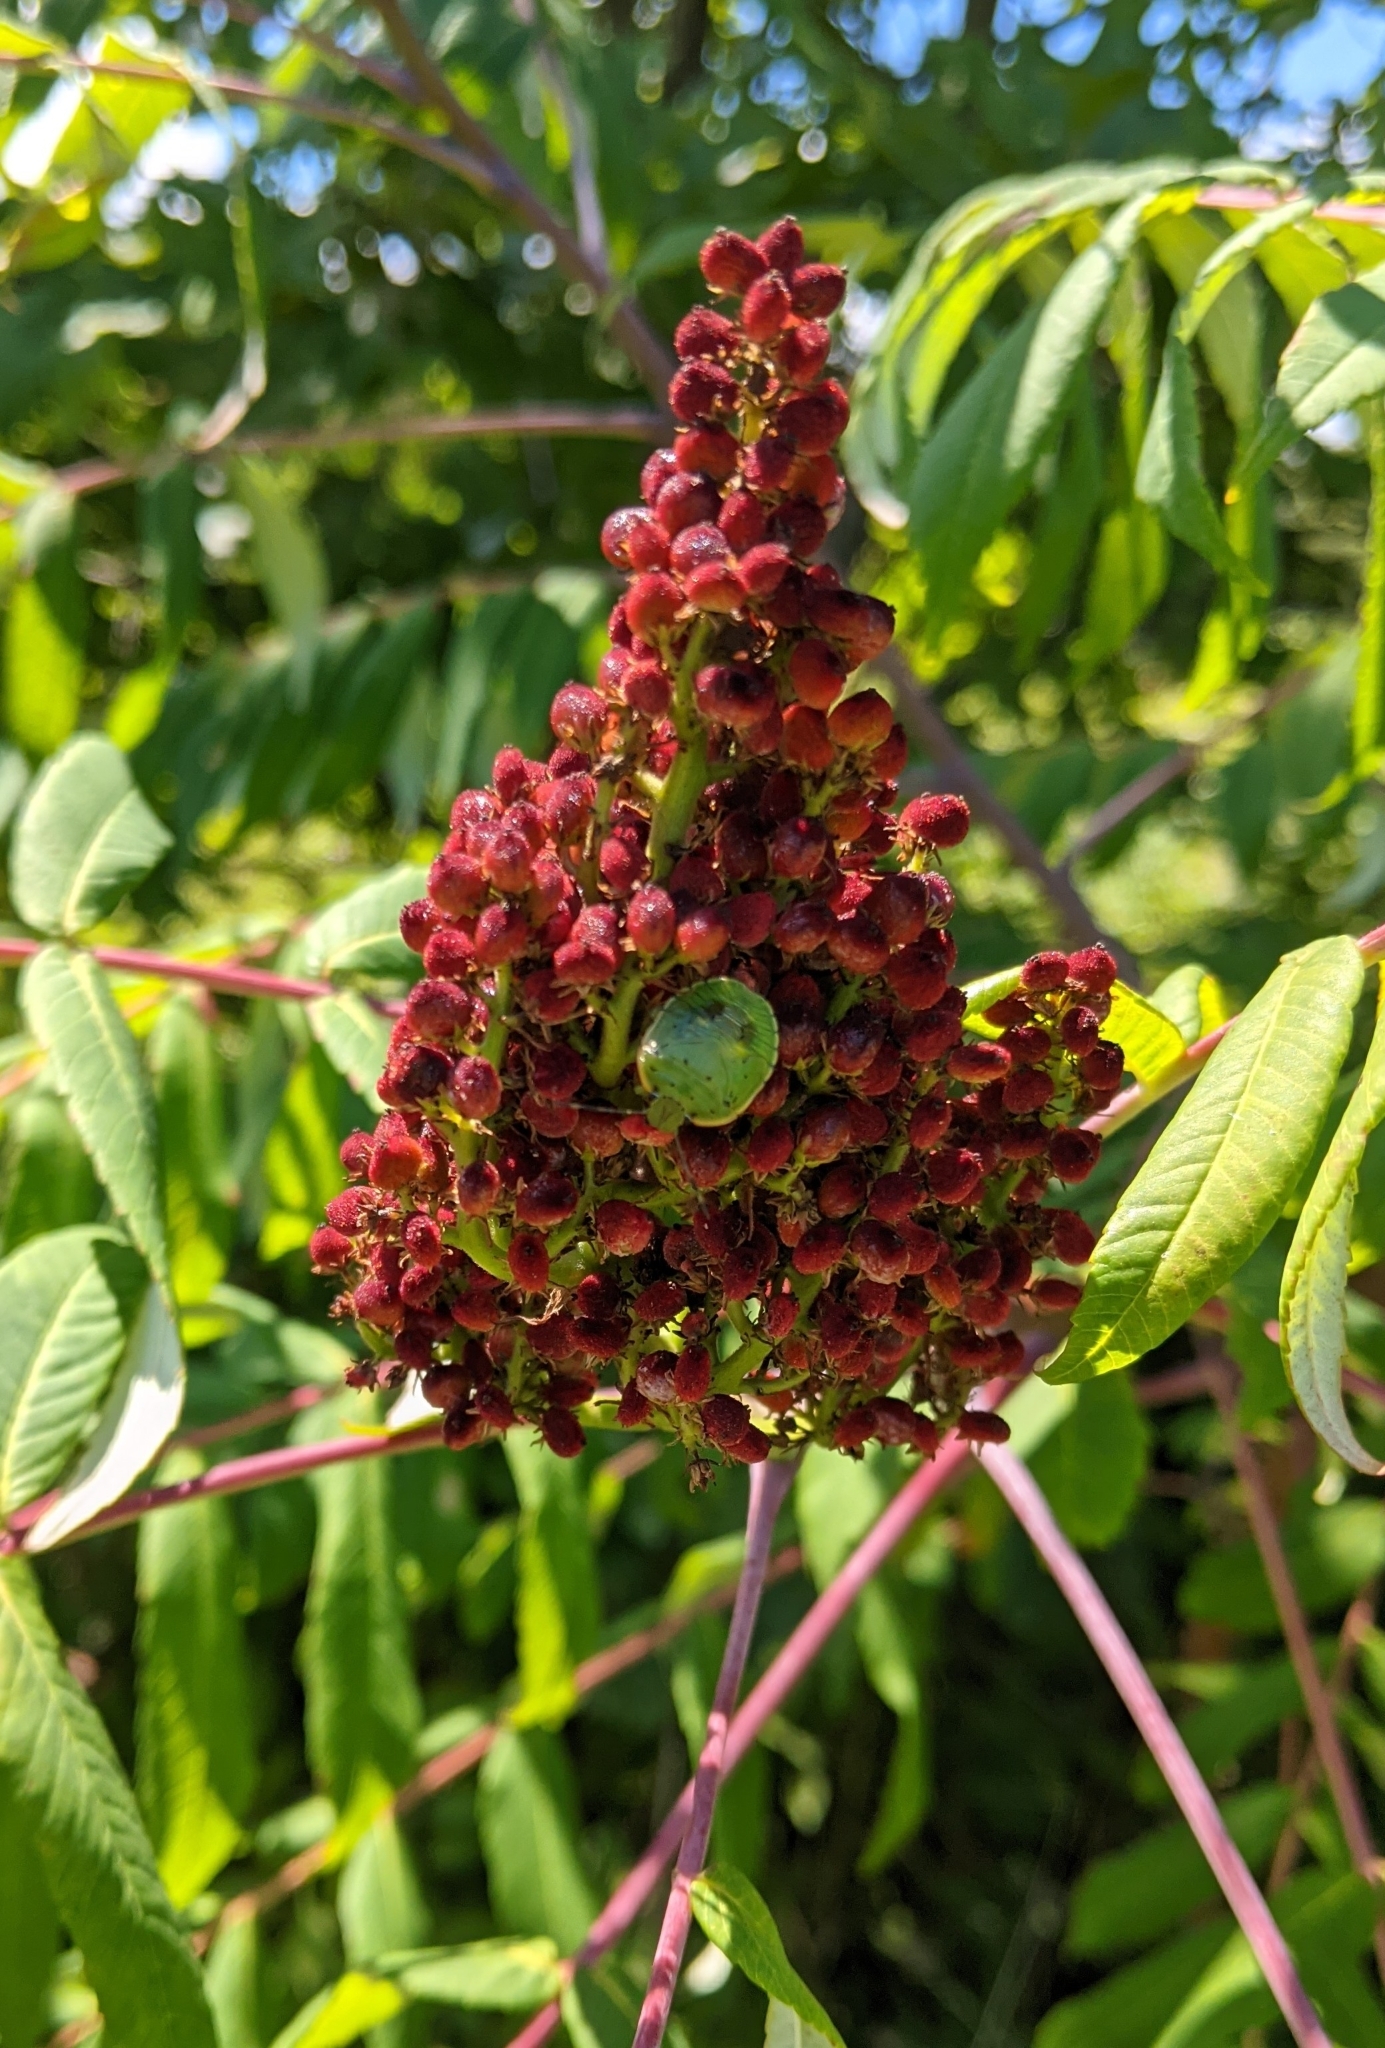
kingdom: Plantae
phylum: Tracheophyta
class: Magnoliopsida
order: Sapindales
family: Anacardiaceae
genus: Rhus
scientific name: Rhus glabra
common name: Scarlet sumac
